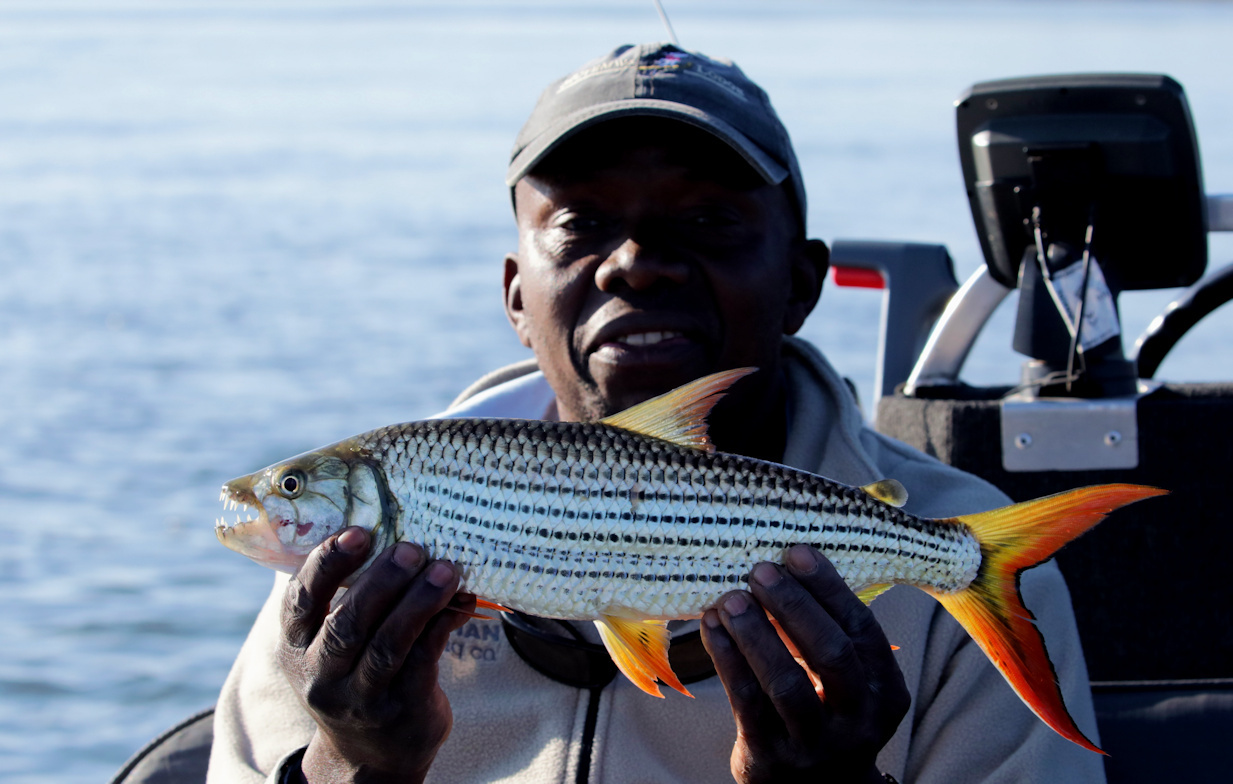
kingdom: Animalia
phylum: Chordata
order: Characiformes
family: Alestidae
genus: Hydrocynus
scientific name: Hydrocynus vittatus
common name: Tigerfish
